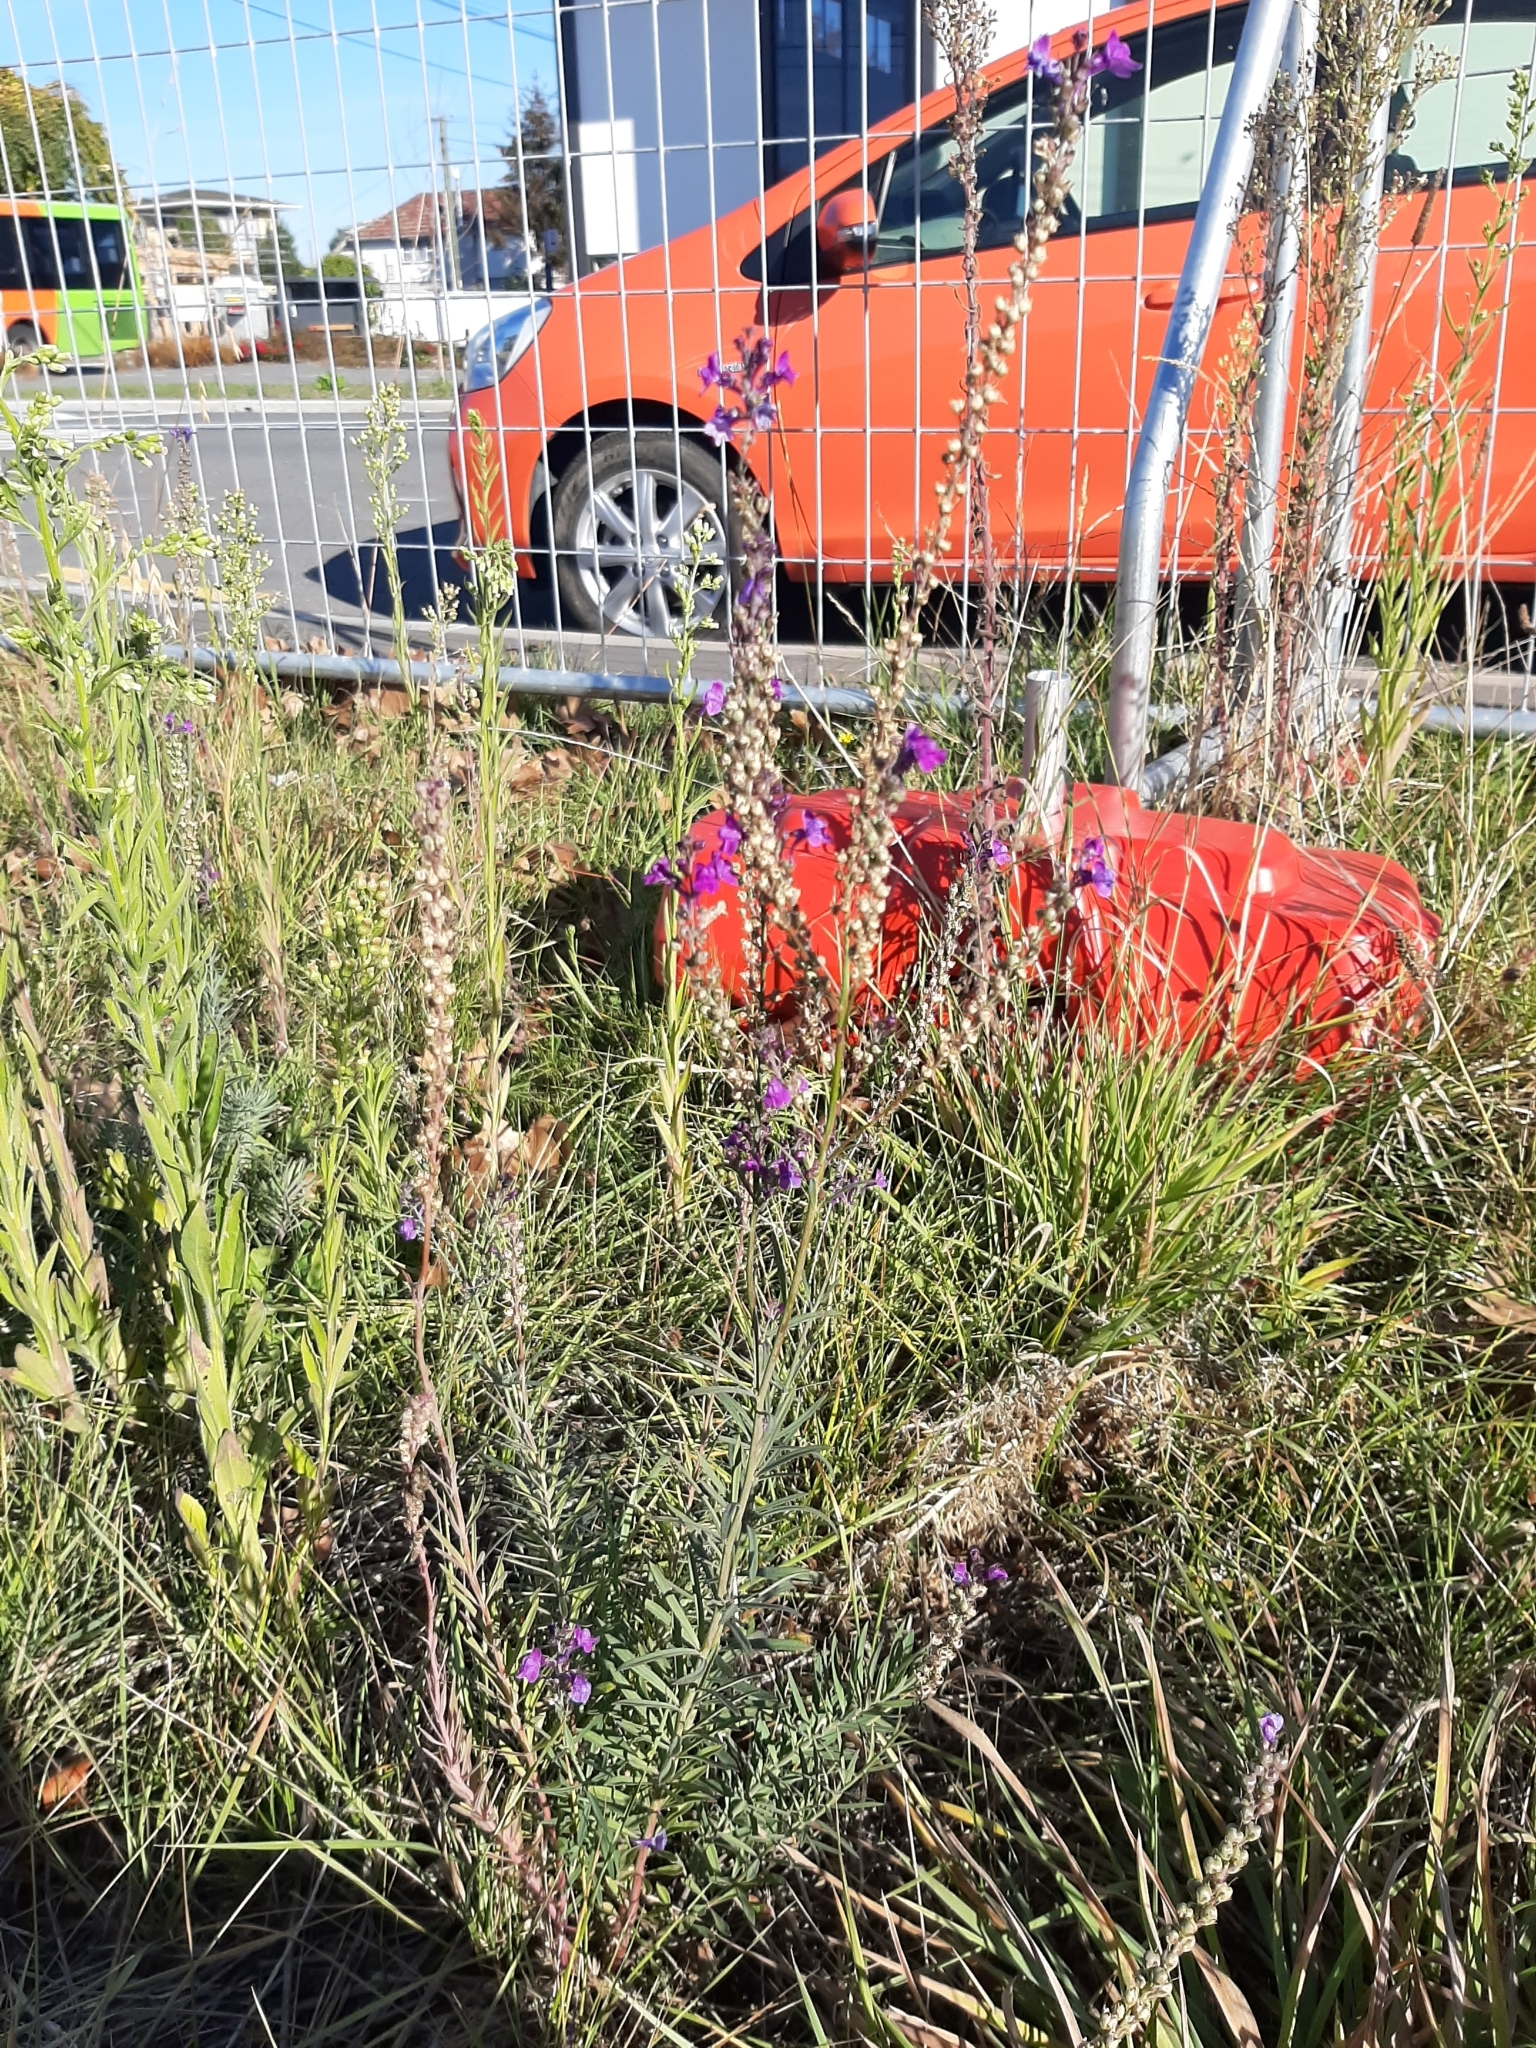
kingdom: Plantae
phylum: Tracheophyta
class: Magnoliopsida
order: Lamiales
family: Plantaginaceae
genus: Linaria
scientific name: Linaria purpurea
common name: Purple toadflax
